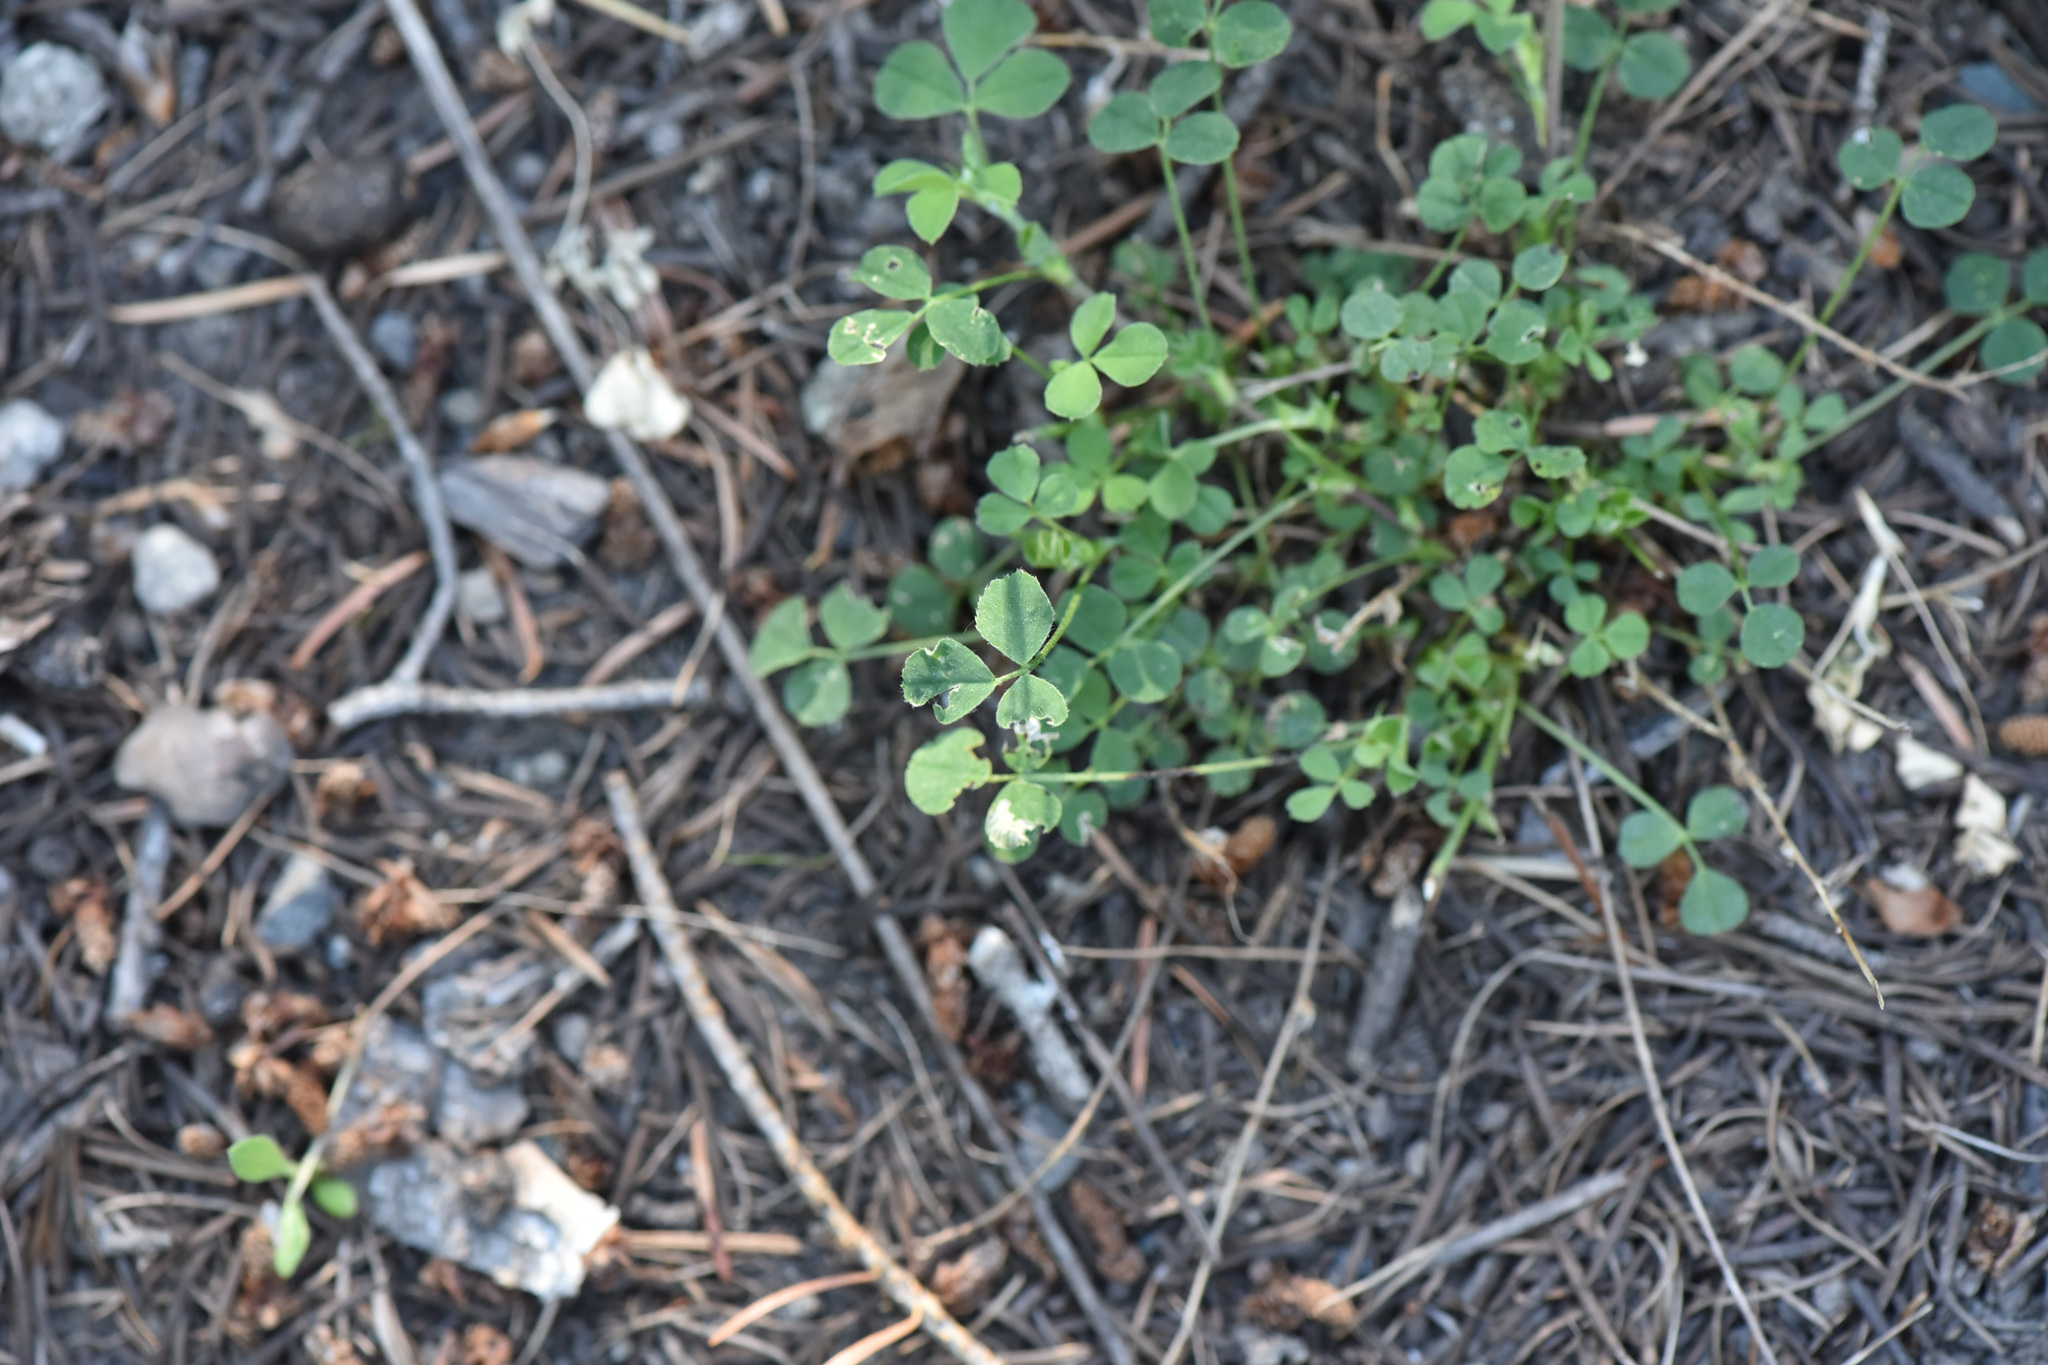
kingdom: Plantae
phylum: Tracheophyta
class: Magnoliopsida
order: Fabales
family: Fabaceae
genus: Medicago
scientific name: Medicago lupulina
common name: Black medick
